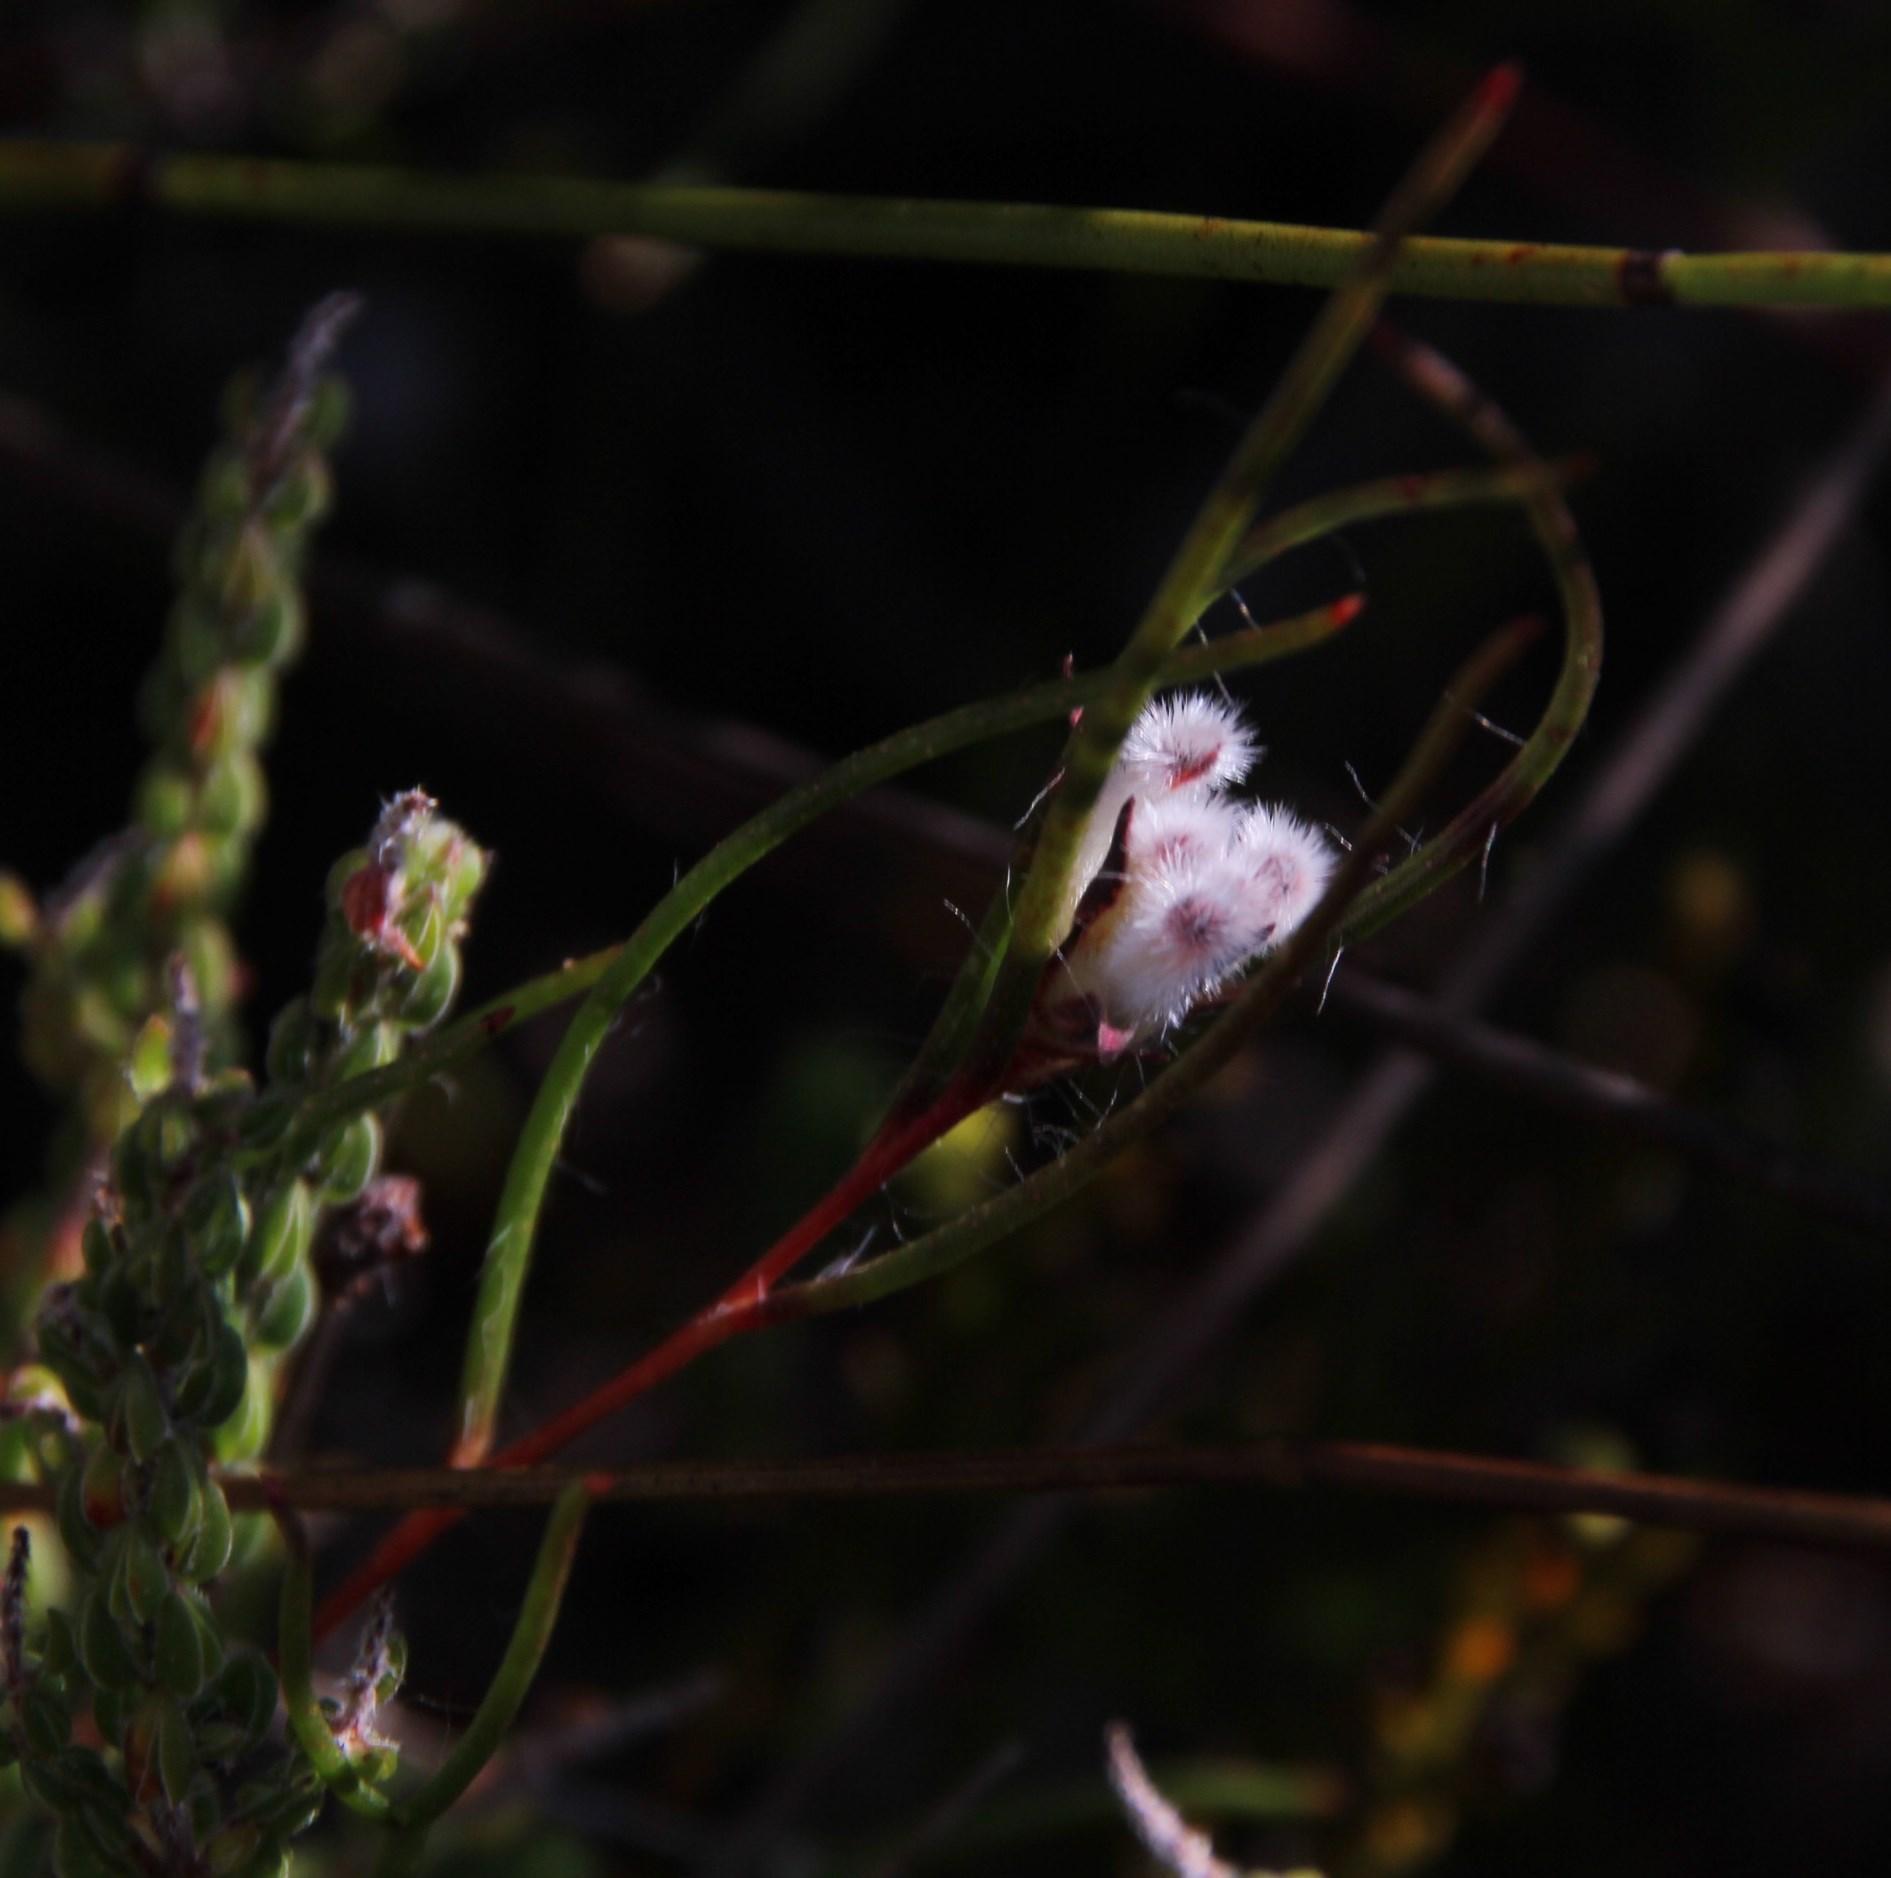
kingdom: Plantae
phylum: Tracheophyta
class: Magnoliopsida
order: Proteales
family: Proteaceae
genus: Serruria
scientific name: Serruria rebeloi
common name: Clandestine spiderhead
